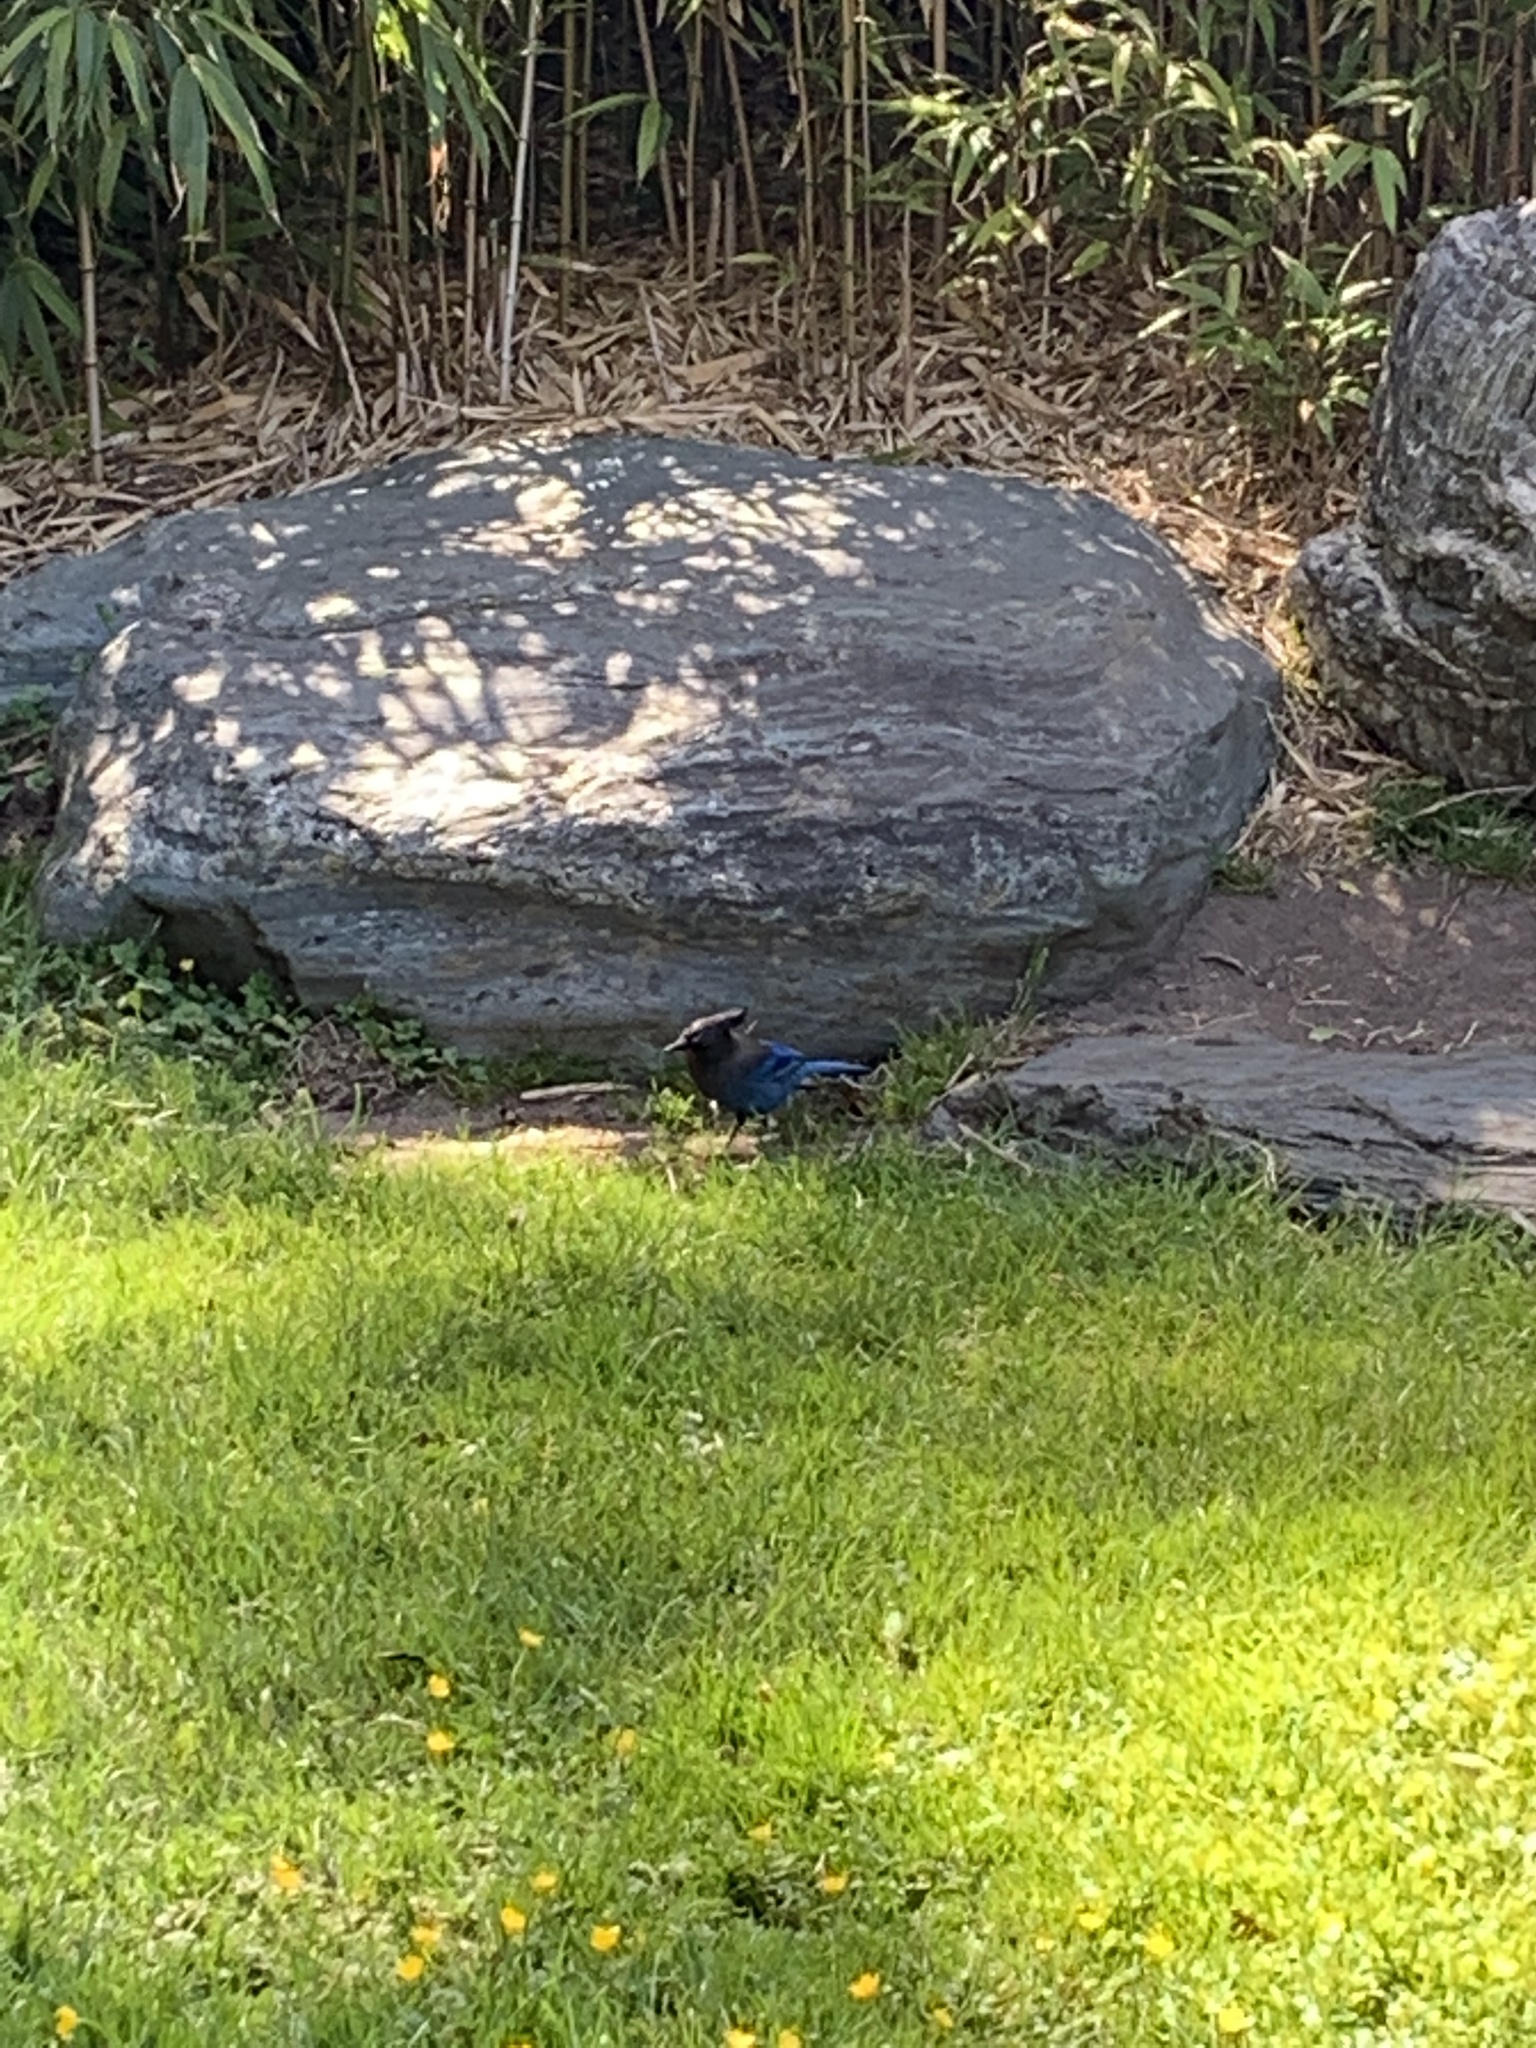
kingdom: Animalia
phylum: Chordata
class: Aves
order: Passeriformes
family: Corvidae
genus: Cyanocitta
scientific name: Cyanocitta stelleri
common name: Steller's jay
